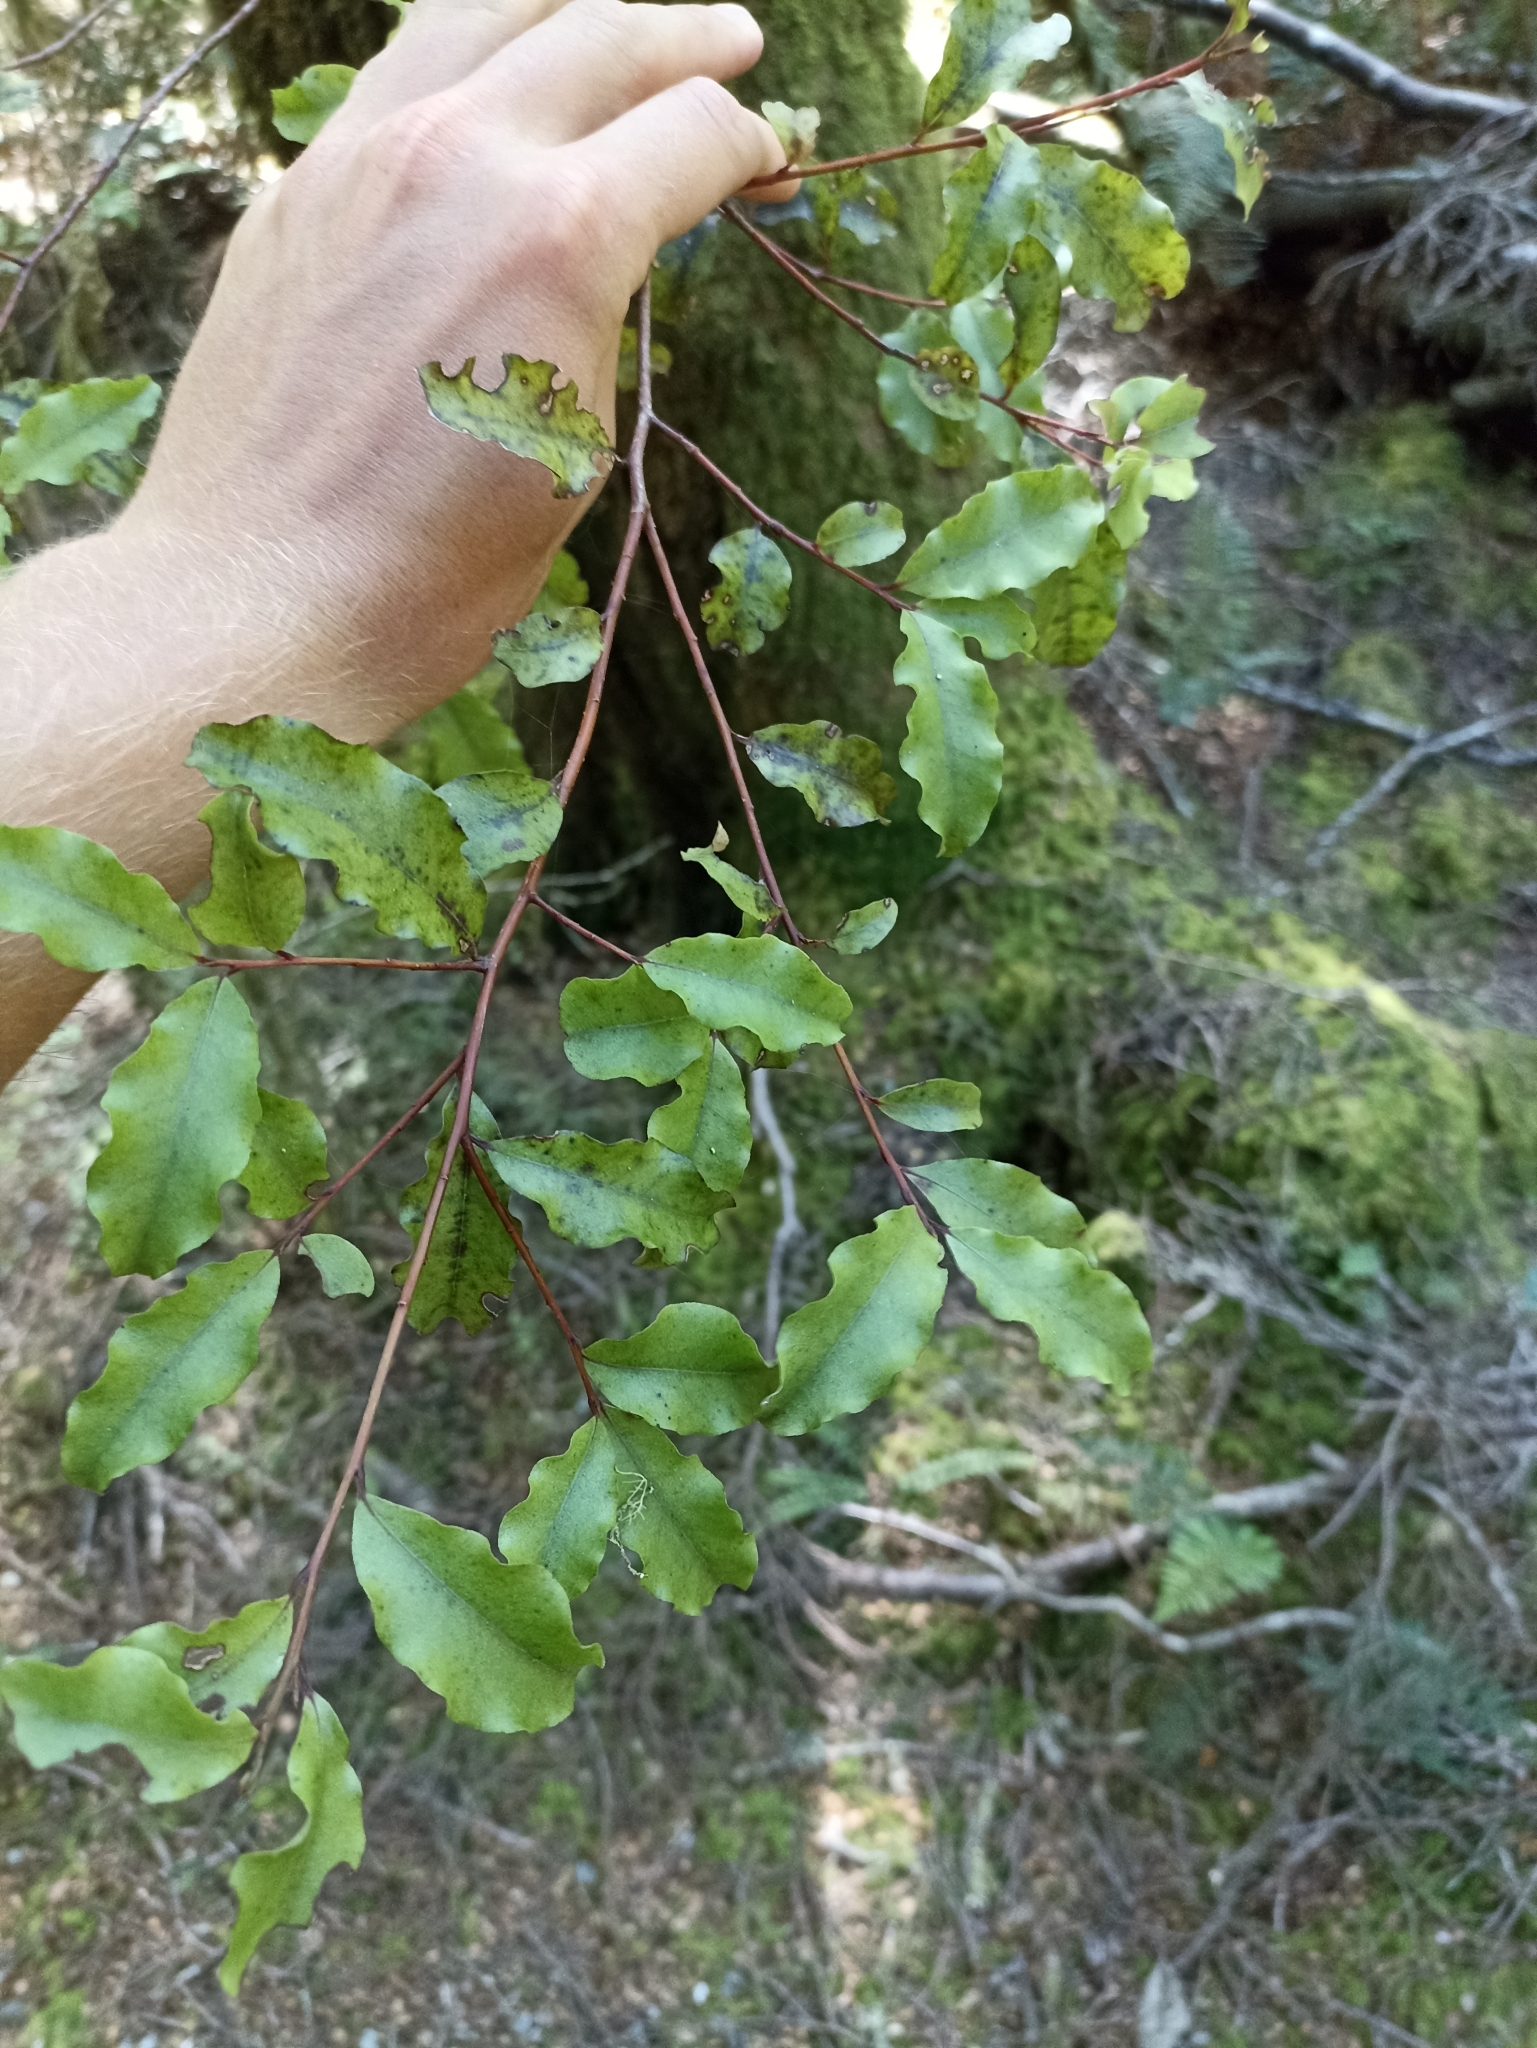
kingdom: Plantae
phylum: Tracheophyta
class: Magnoliopsida
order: Ericales
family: Primulaceae
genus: Myrsine
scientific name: Myrsine australis
